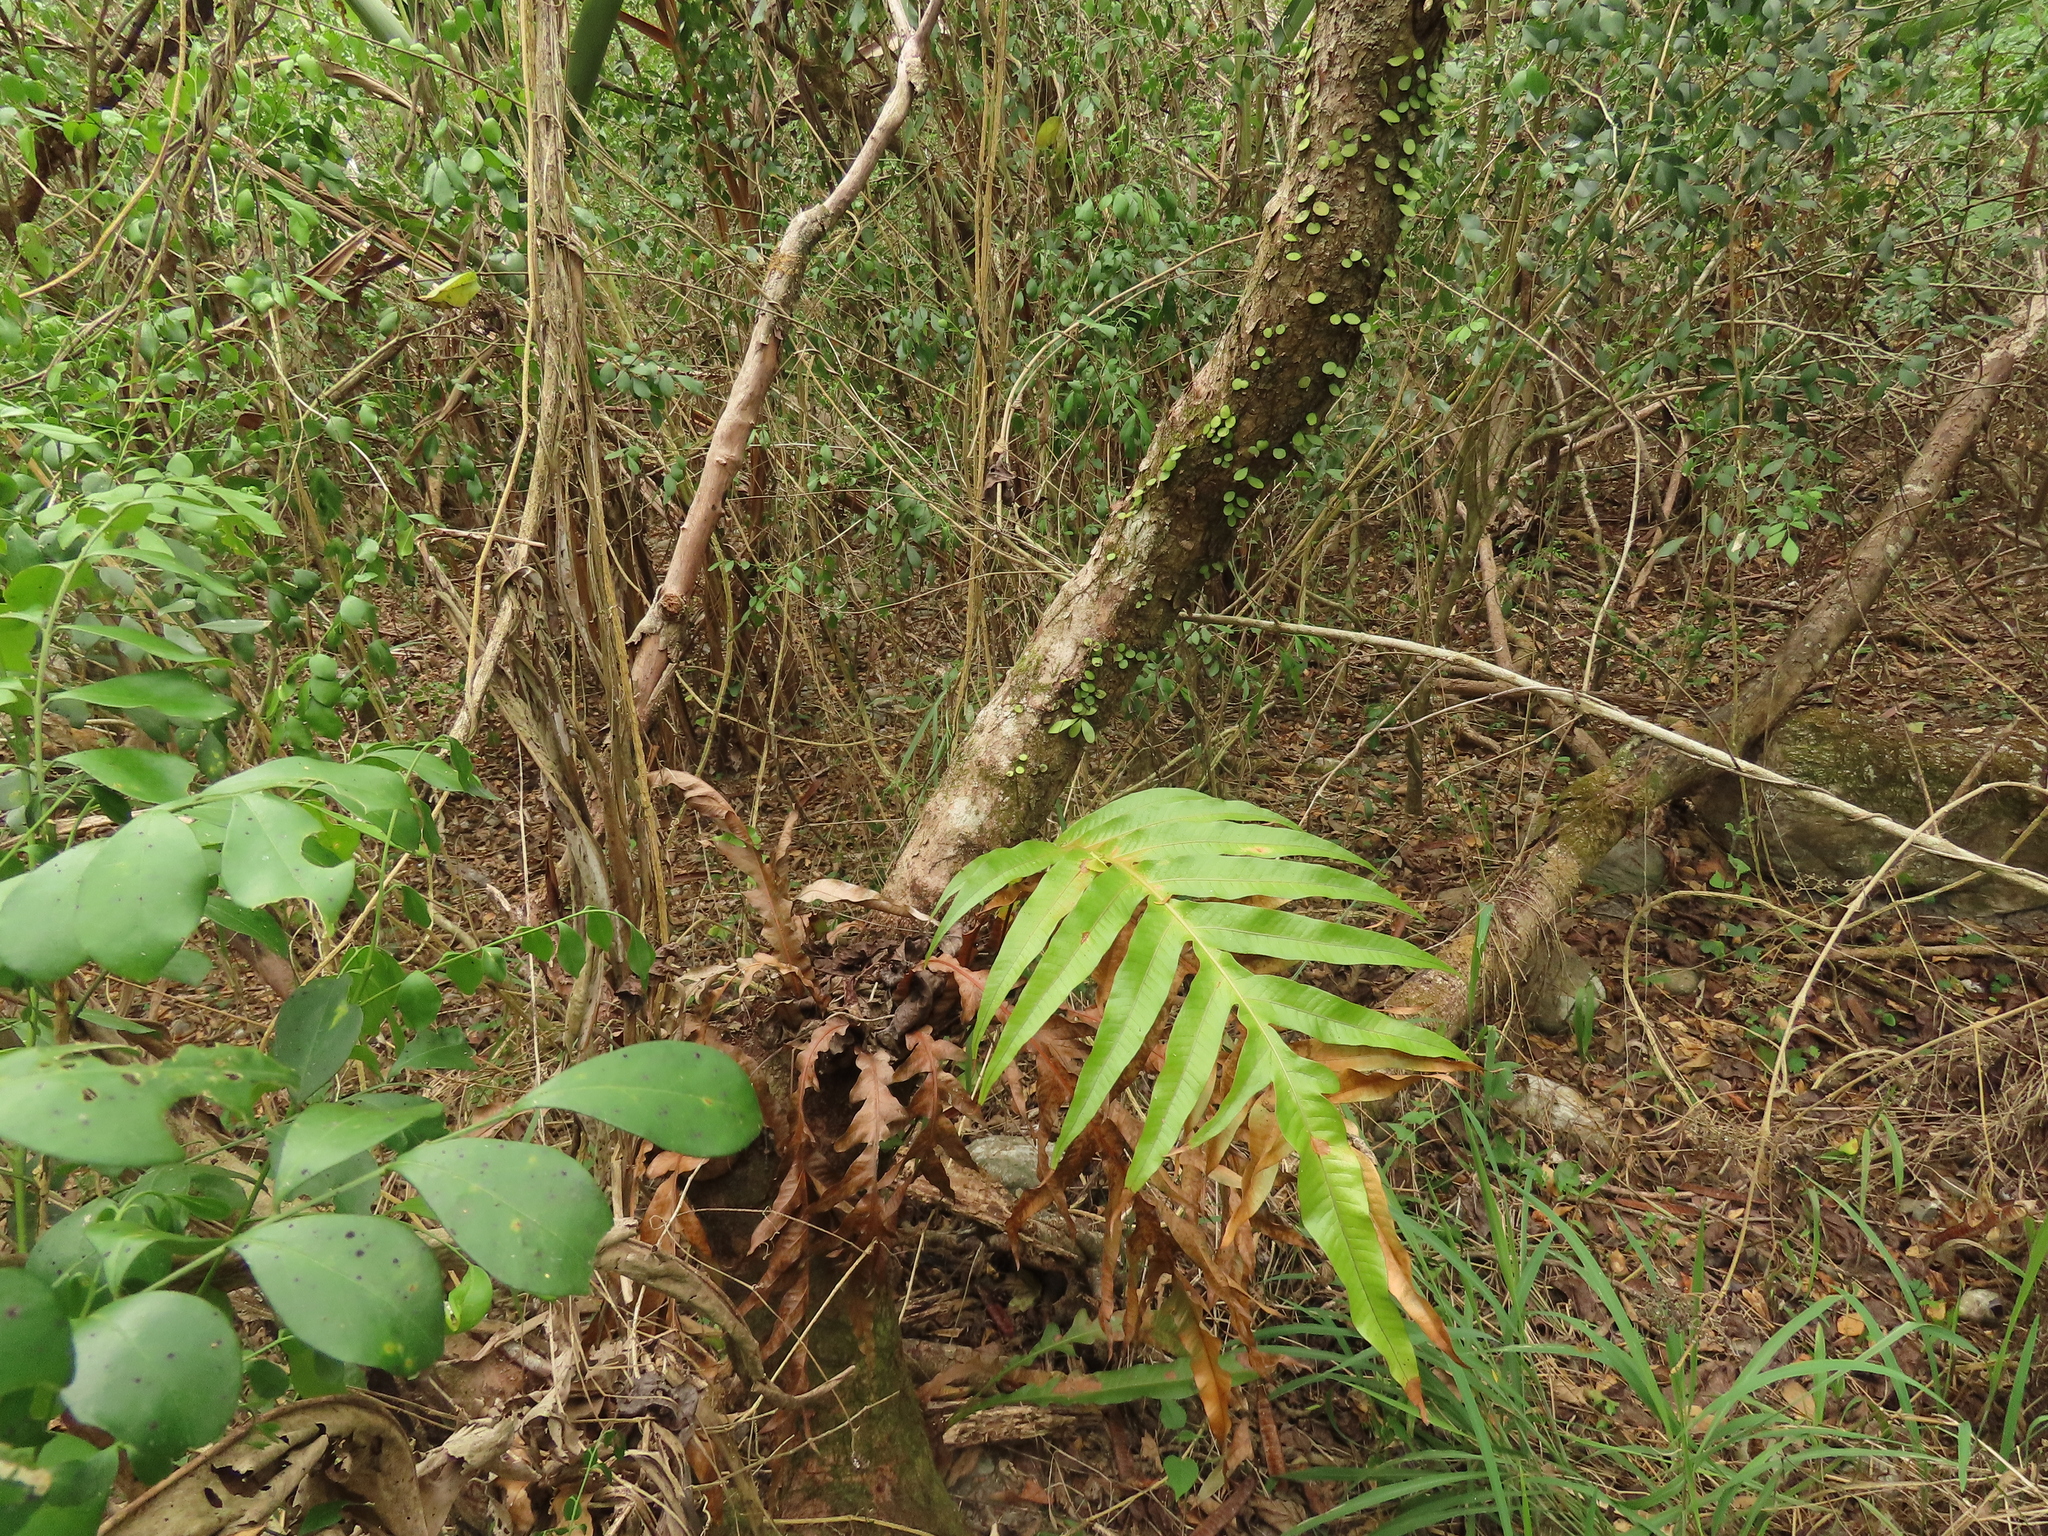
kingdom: Plantae
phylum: Tracheophyta
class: Polypodiopsida
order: Polypodiales
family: Polypodiaceae
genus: Lepisorus
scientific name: Lepisorus microphyllus
